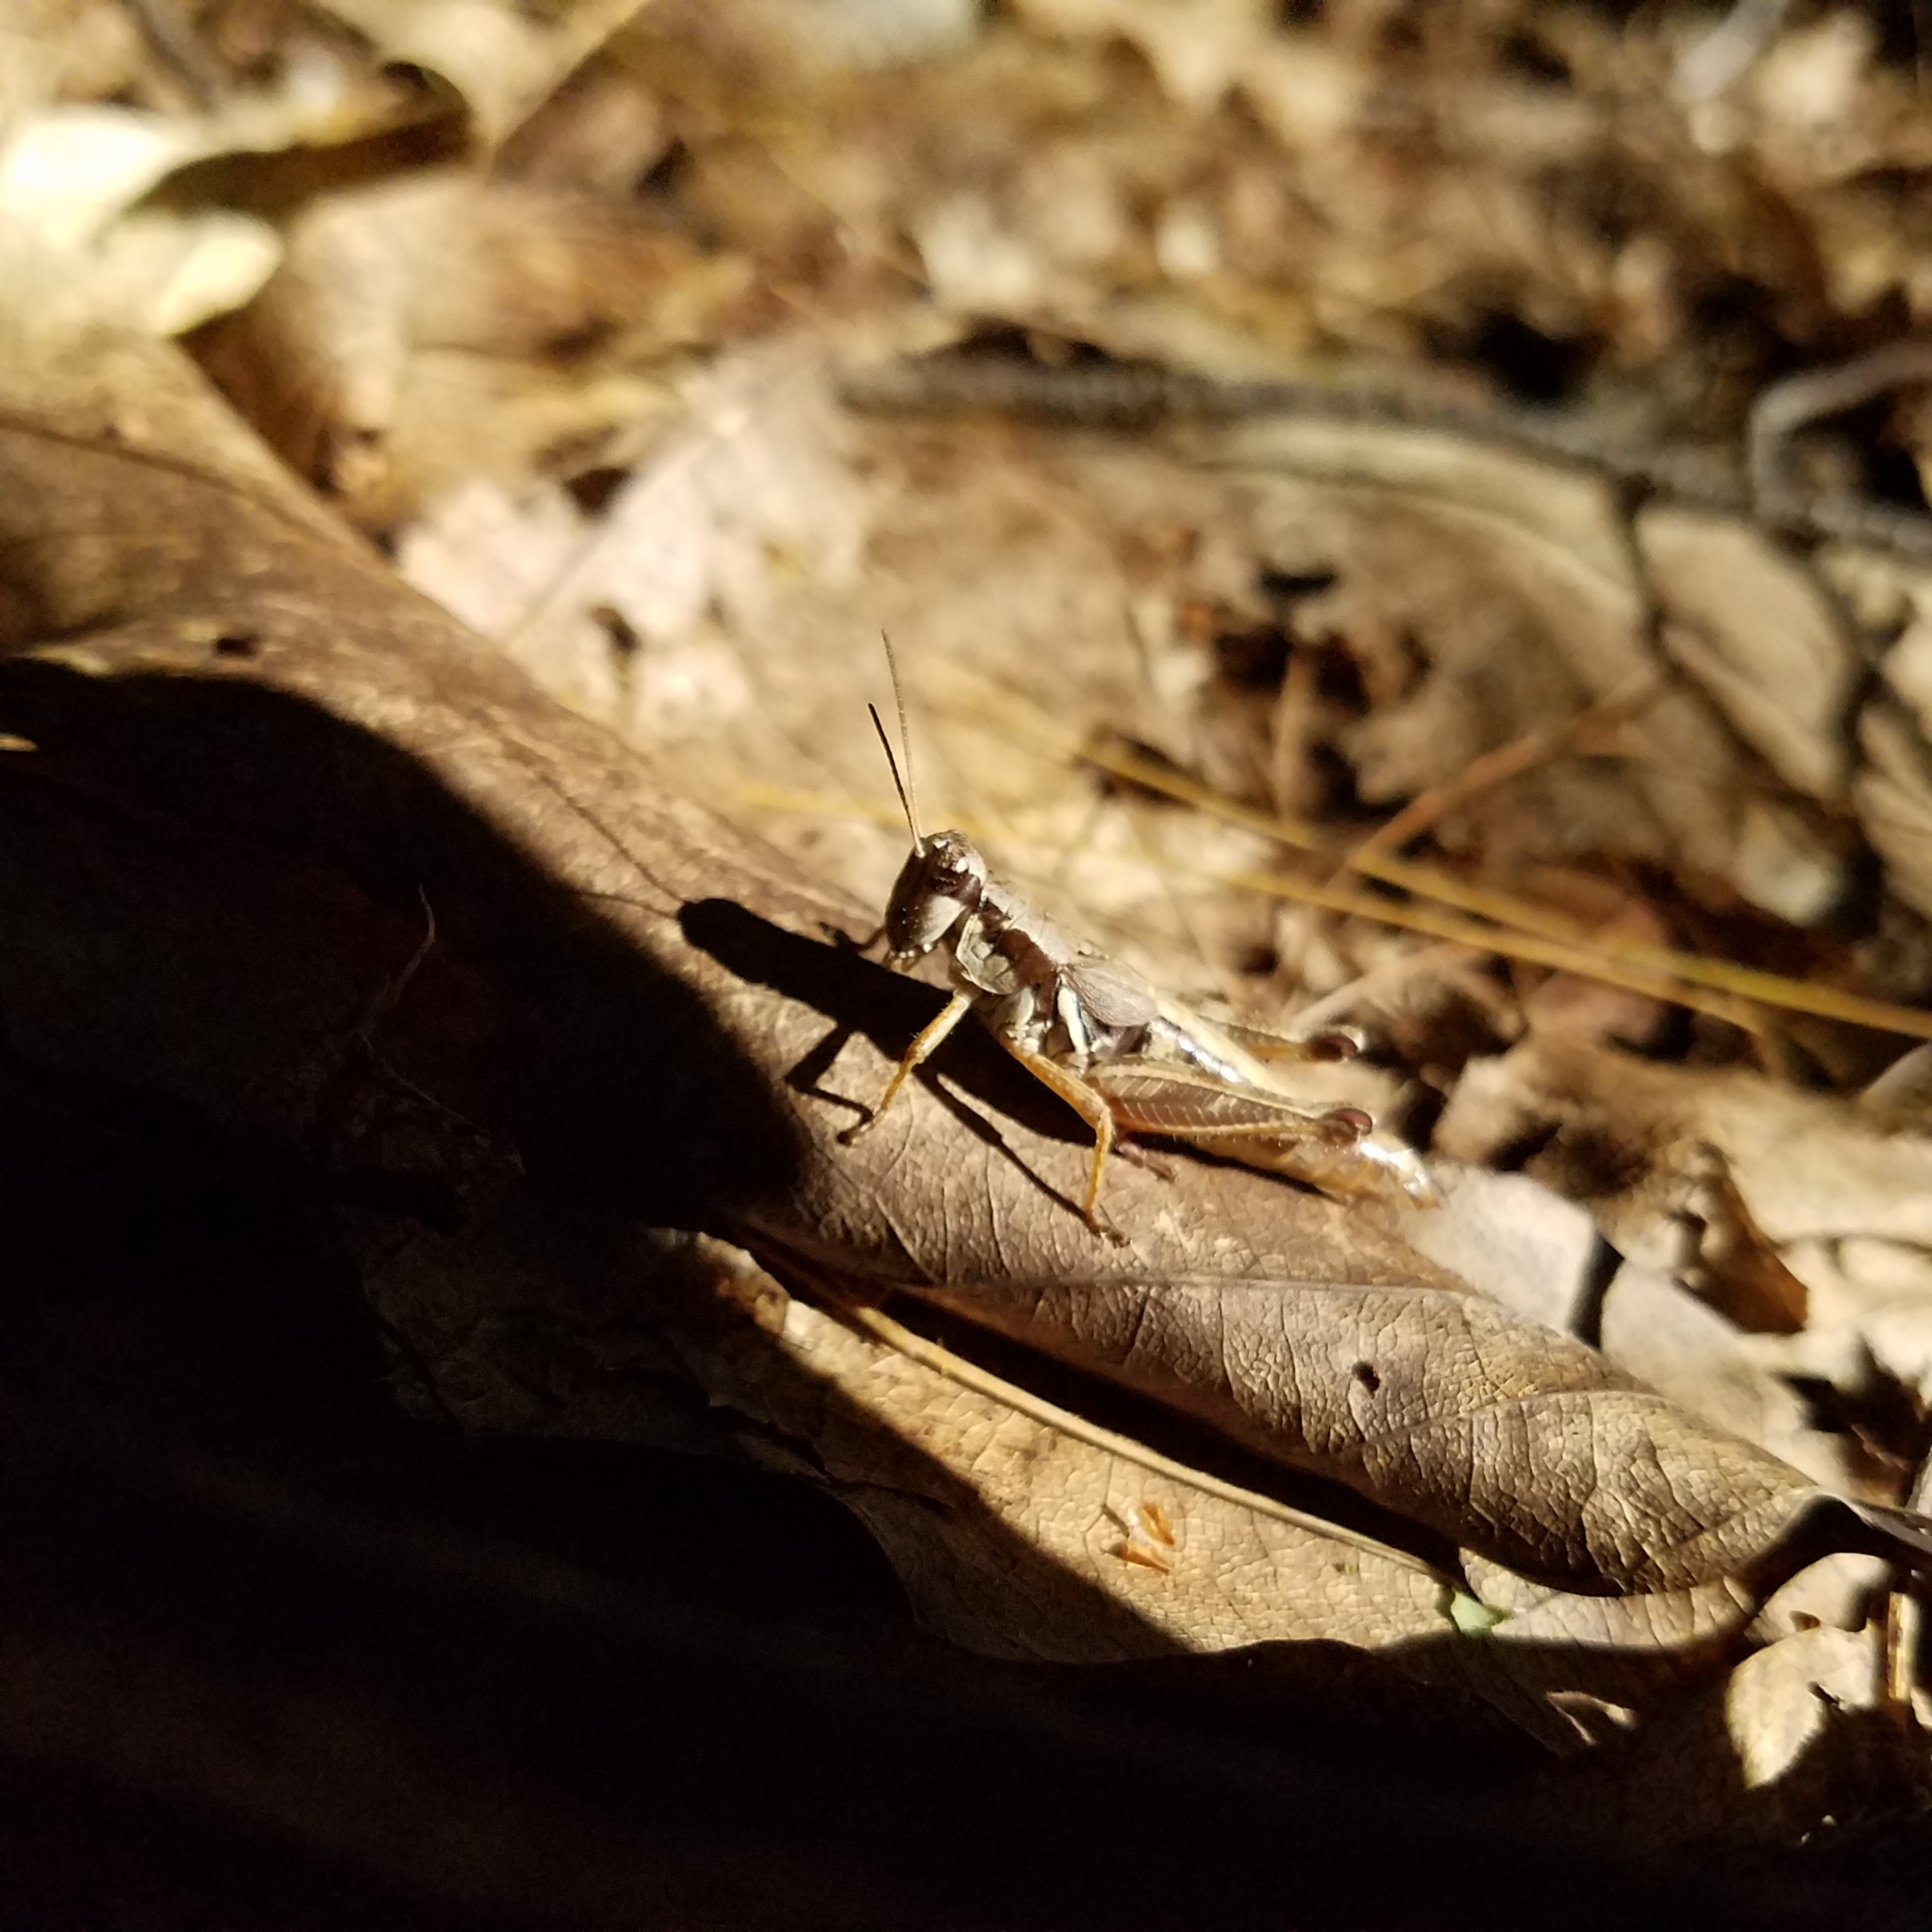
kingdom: Animalia
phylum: Arthropoda
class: Insecta
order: Orthoptera
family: Acrididae
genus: Melanoplus
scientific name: Melanoplus mancus
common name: Smith's spur-throat grasshopper
